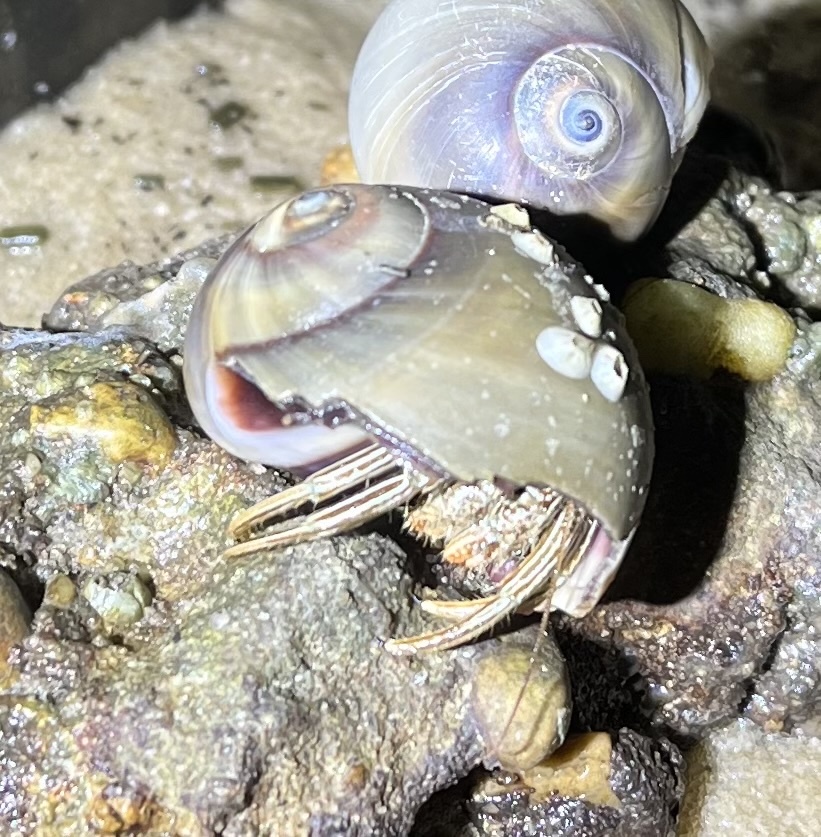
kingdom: Animalia
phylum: Arthropoda
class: Malacostraca
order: Decapoda
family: Diogenidae
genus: Clibanarius
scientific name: Clibanarius vittatus
